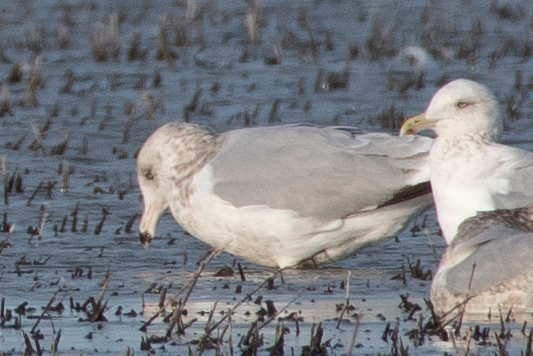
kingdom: Animalia
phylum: Chordata
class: Aves
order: Charadriiformes
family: Laridae
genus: Larus
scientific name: Larus argentatus
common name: Herring gull
